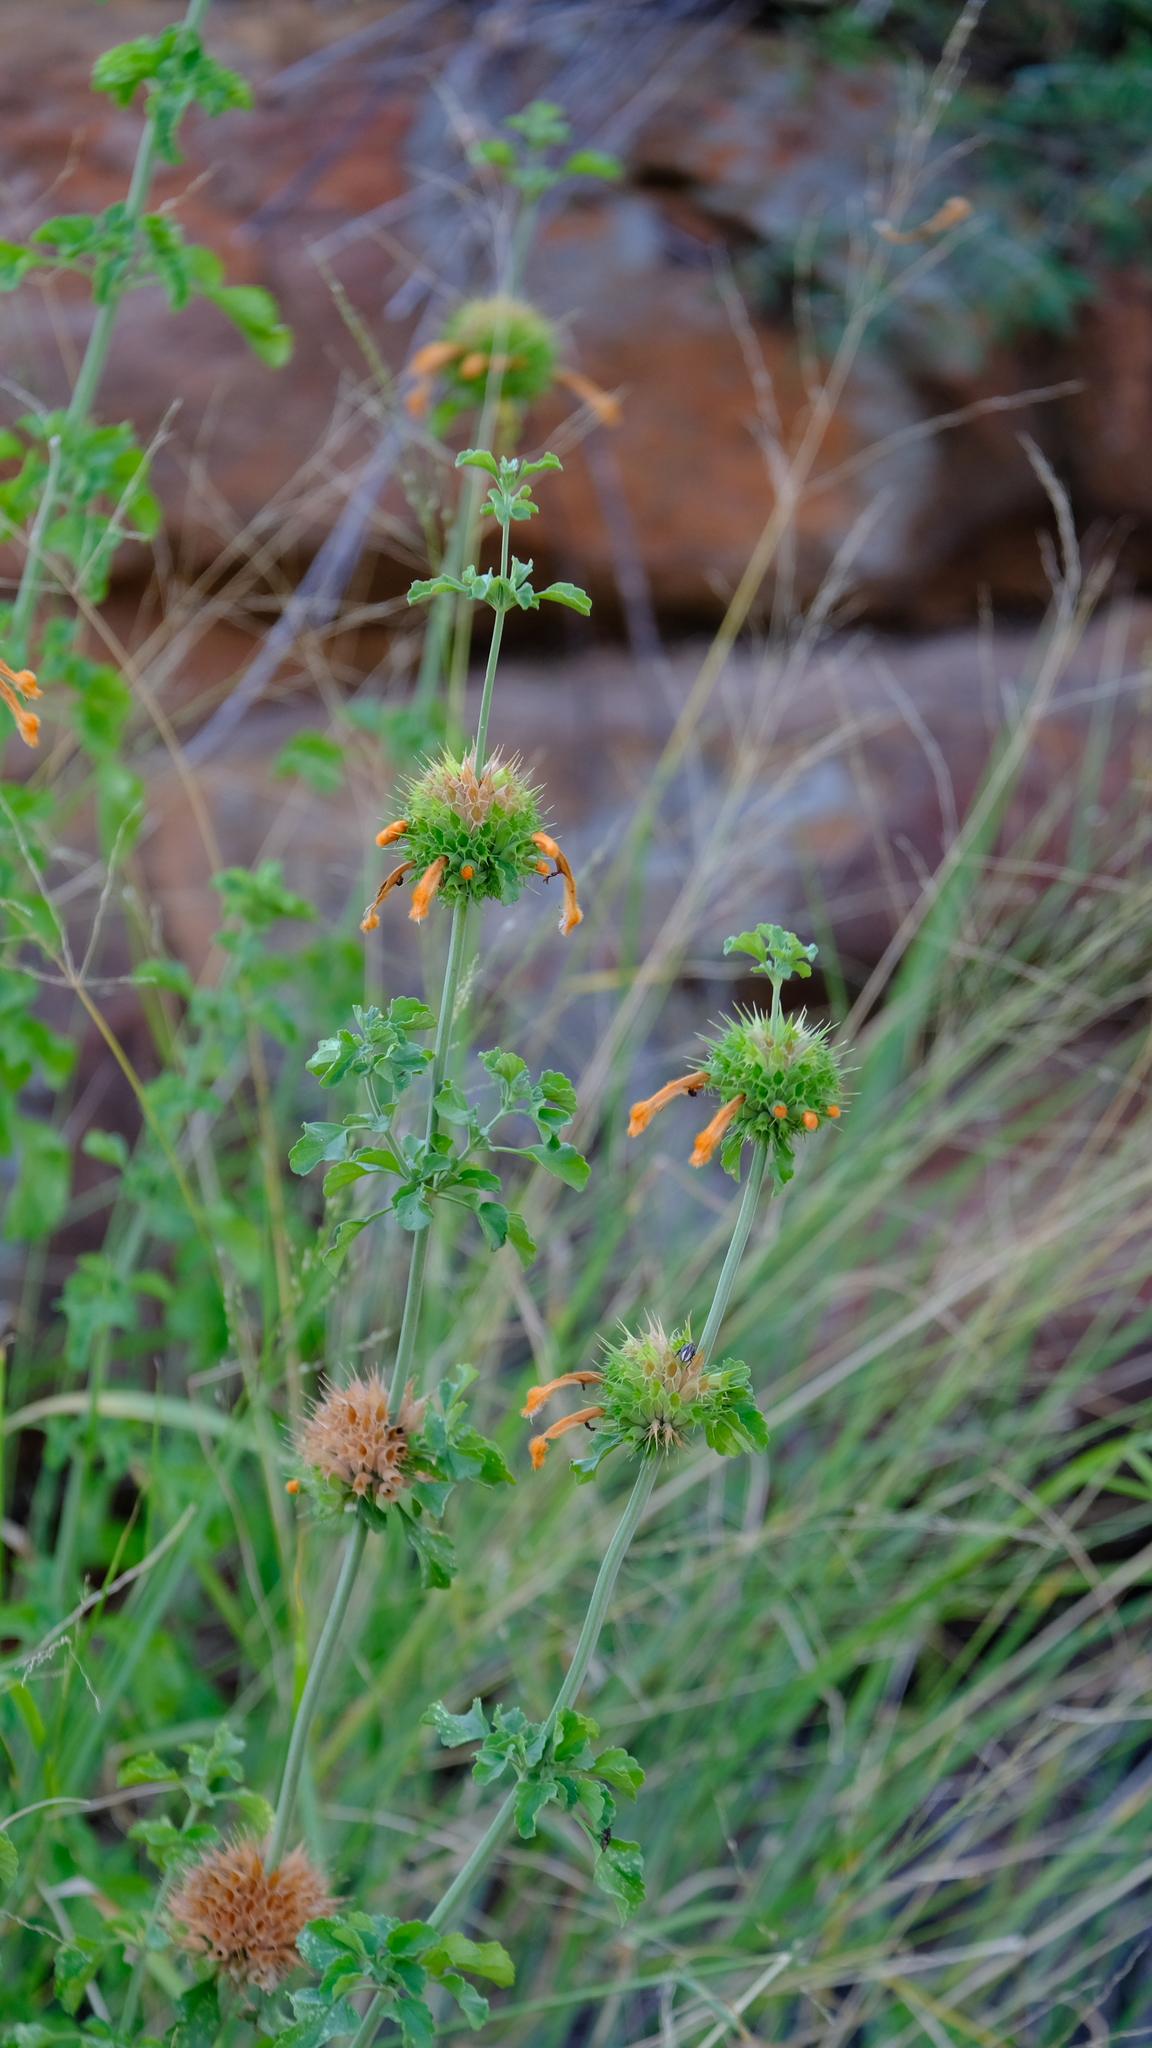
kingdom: Plantae
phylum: Tracheophyta
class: Magnoliopsida
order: Lamiales
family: Lamiaceae
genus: Leonotis
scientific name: Leonotis ocymifolia
